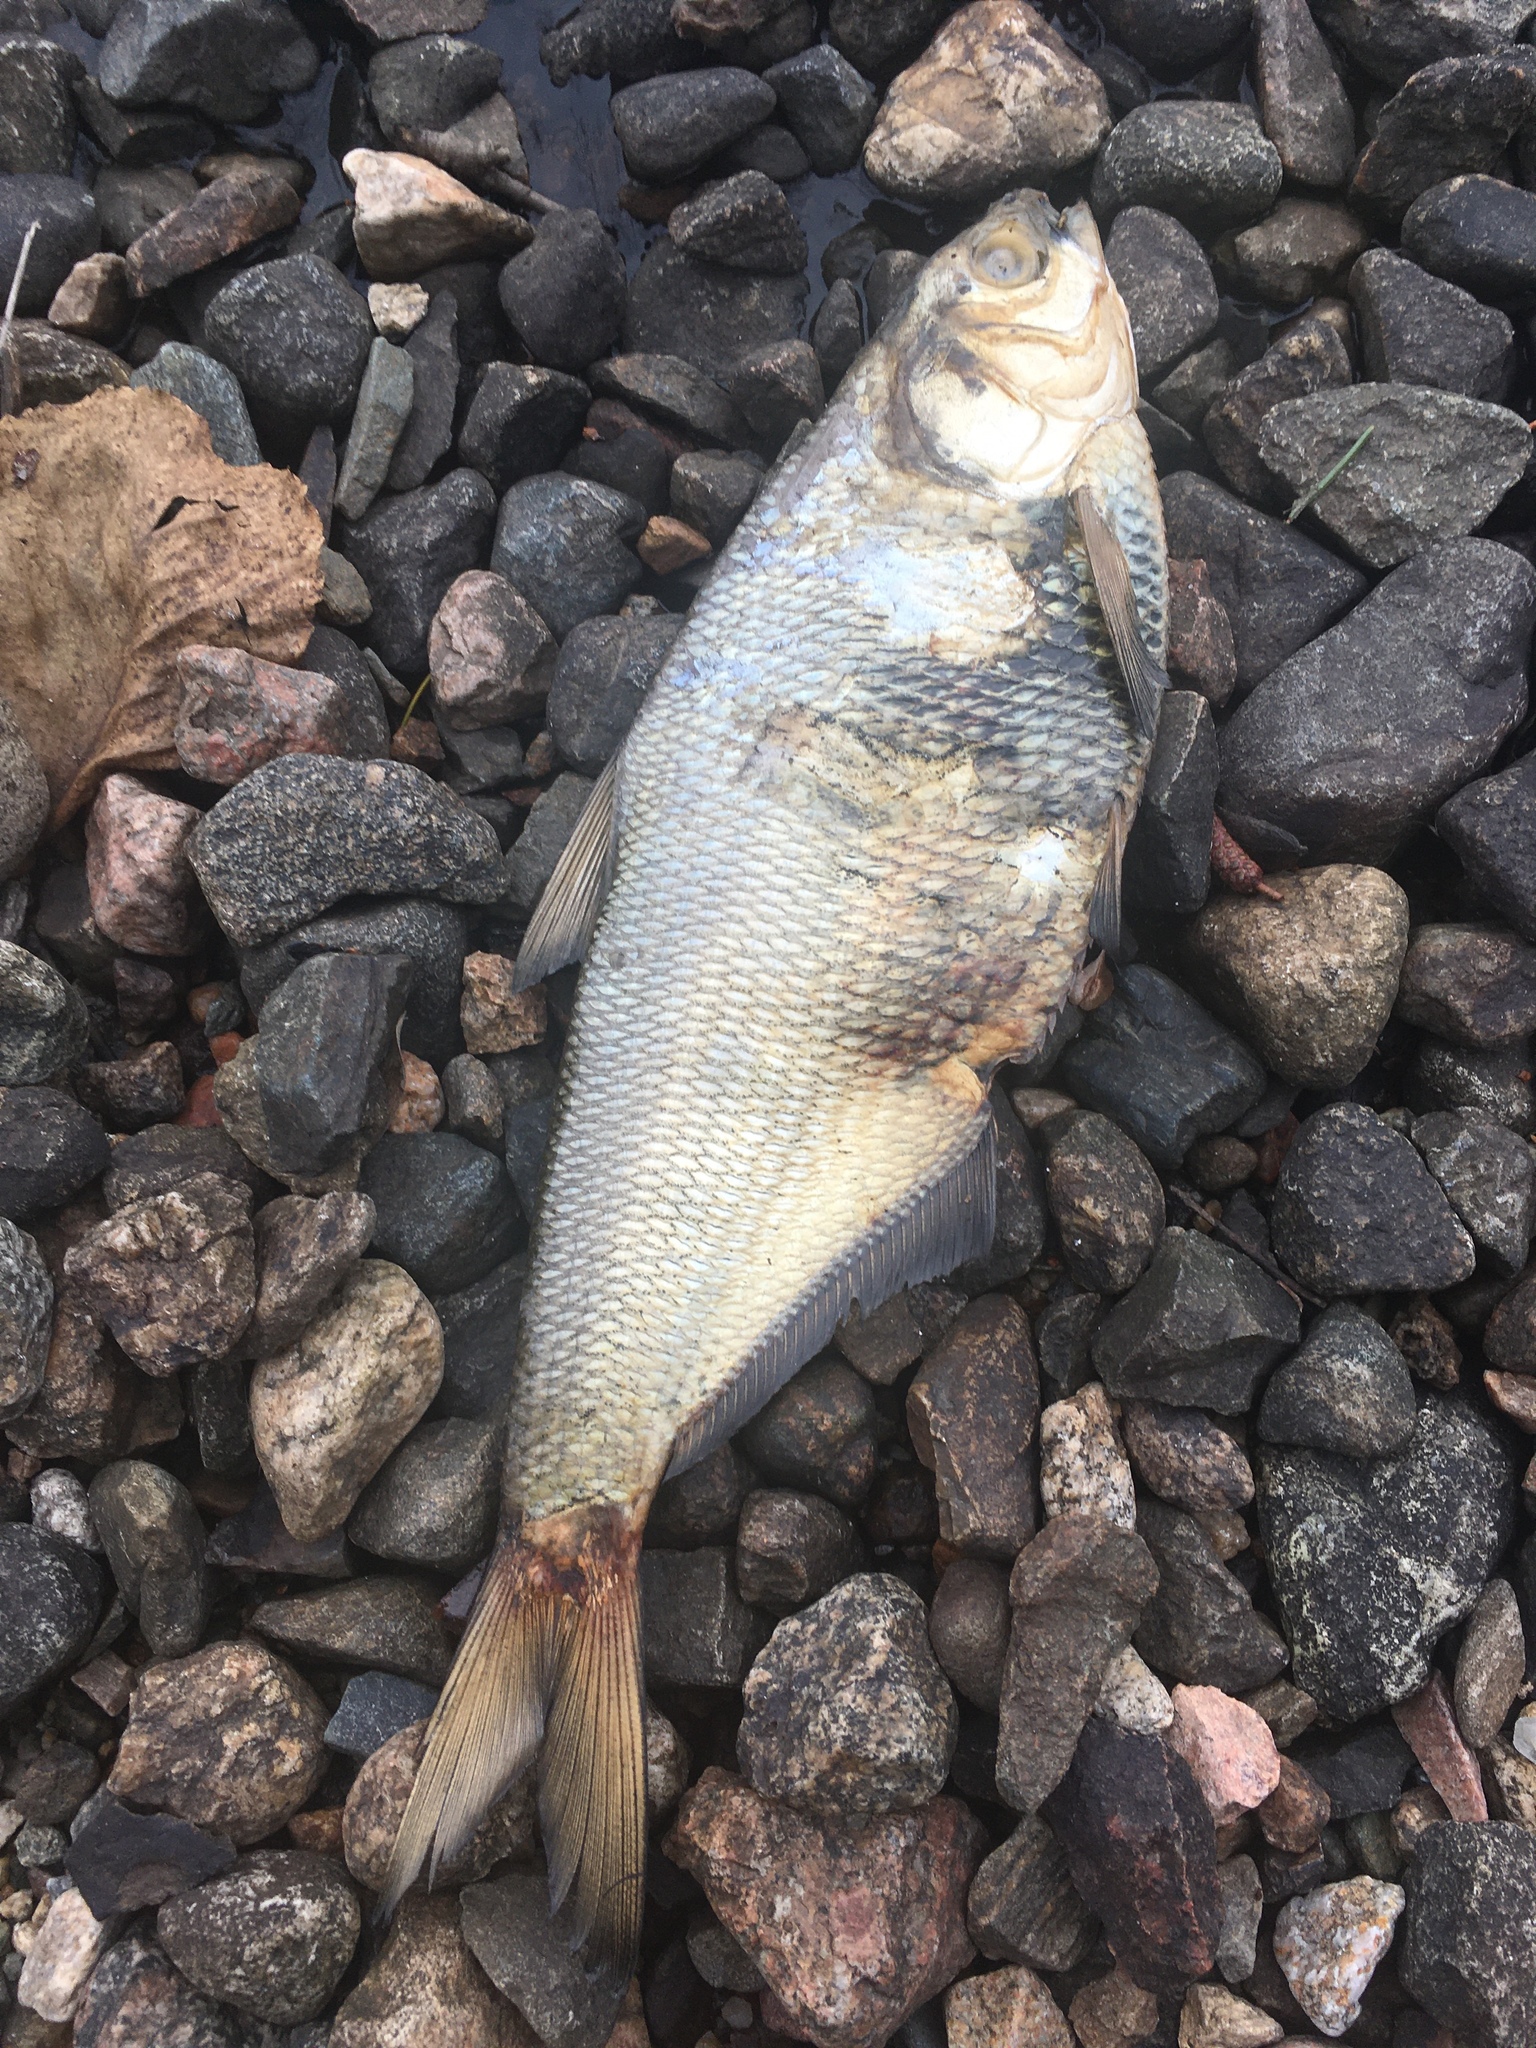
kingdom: Animalia
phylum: Chordata
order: Clupeiformes
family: Clupeidae
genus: Dorosoma
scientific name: Dorosoma cepedianum
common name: Gizzard shad
